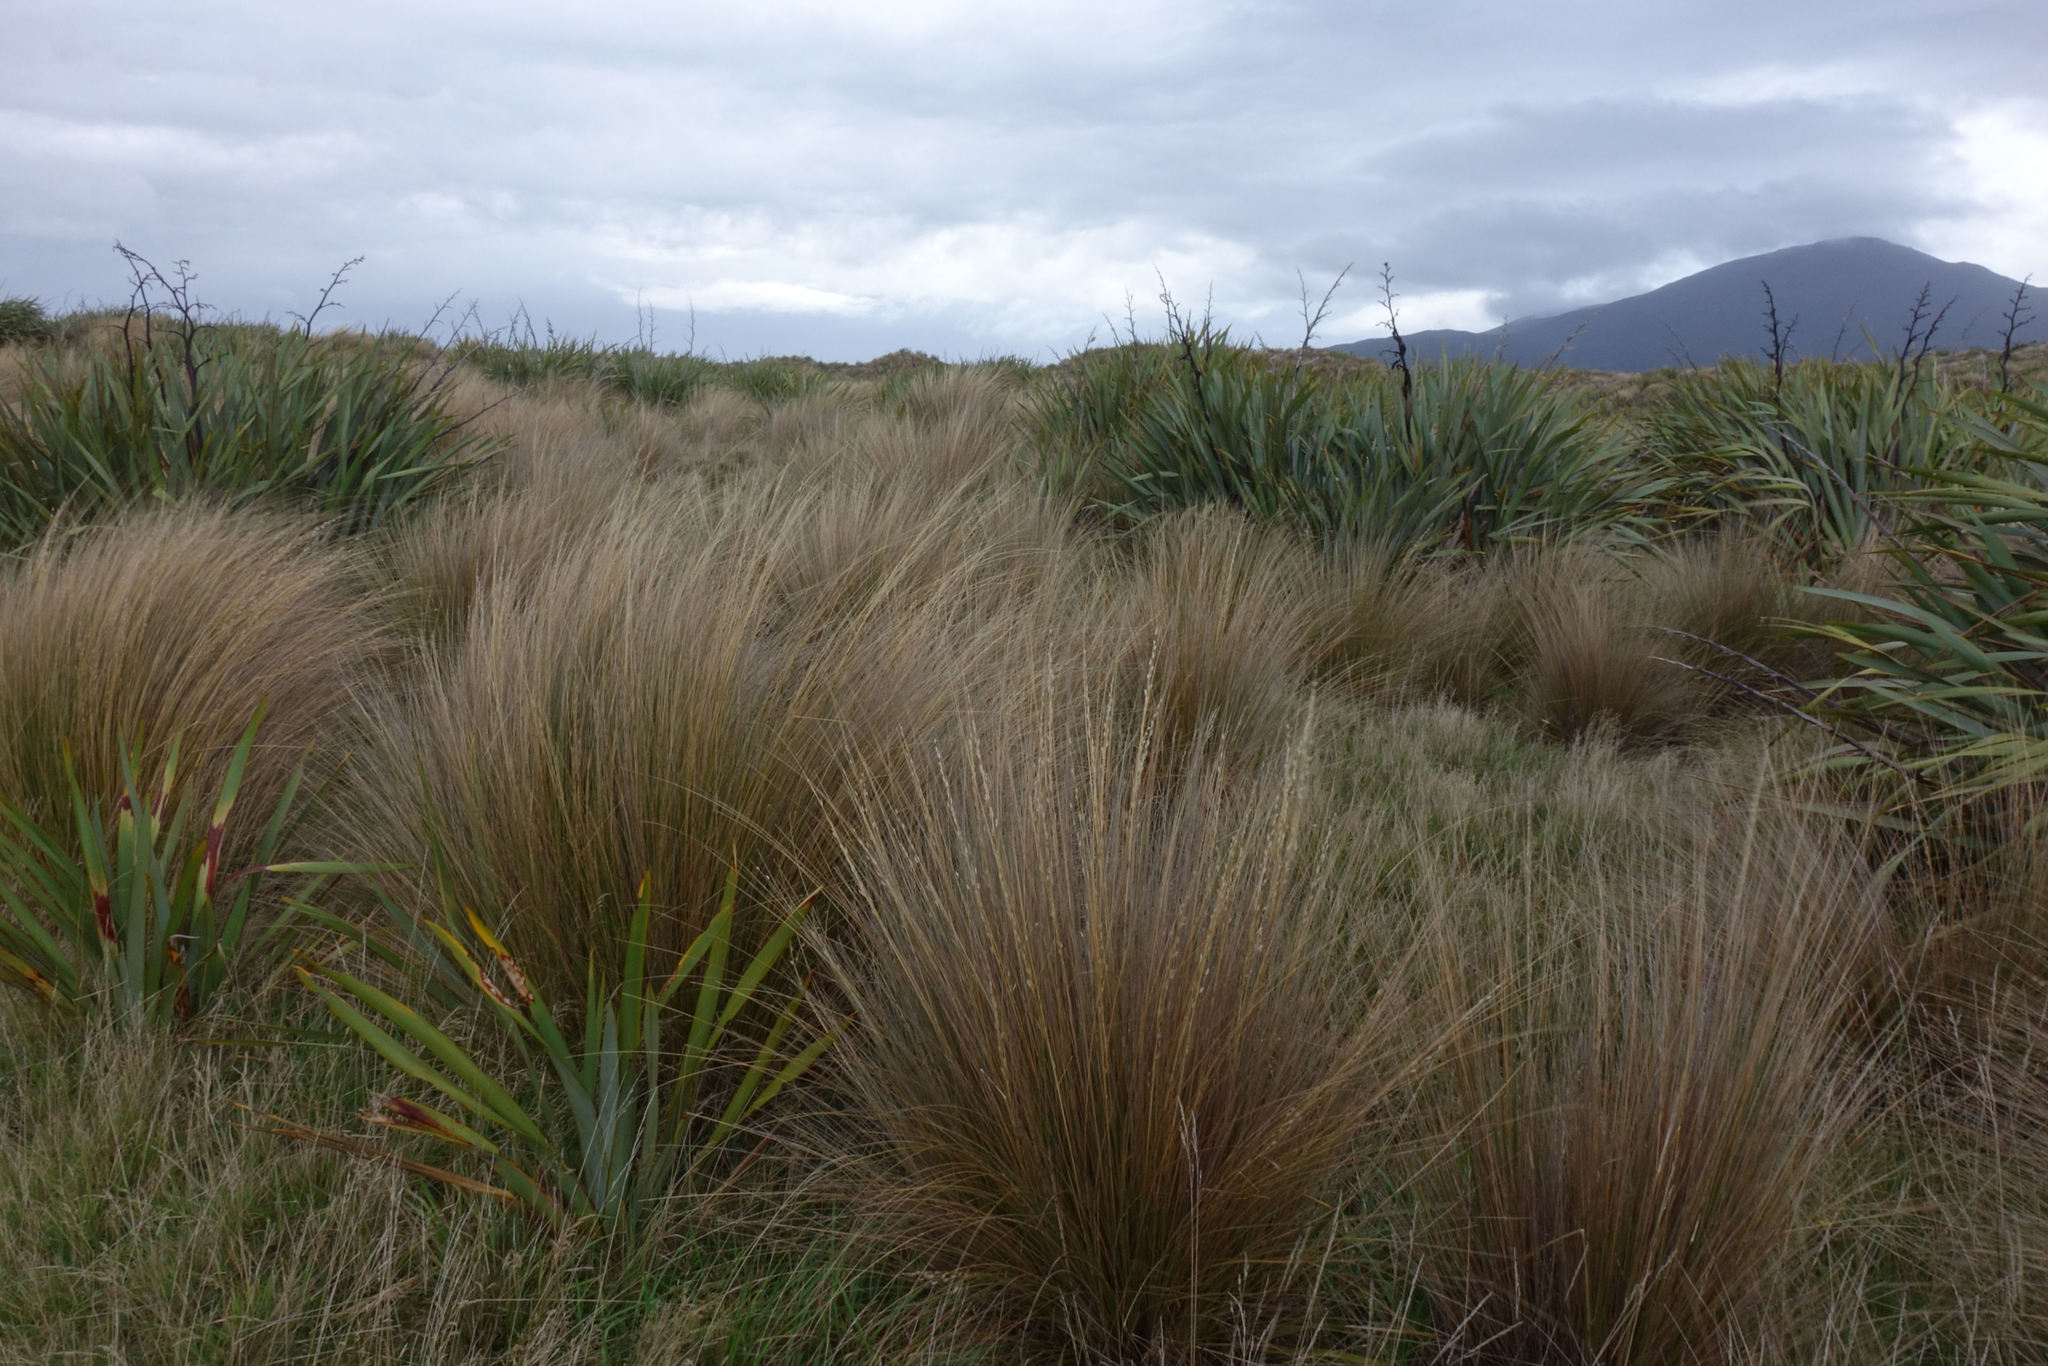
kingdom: Plantae
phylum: Tracheophyta
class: Liliopsida
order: Poales
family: Poaceae
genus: Chionochloa
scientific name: Chionochloa rubra
